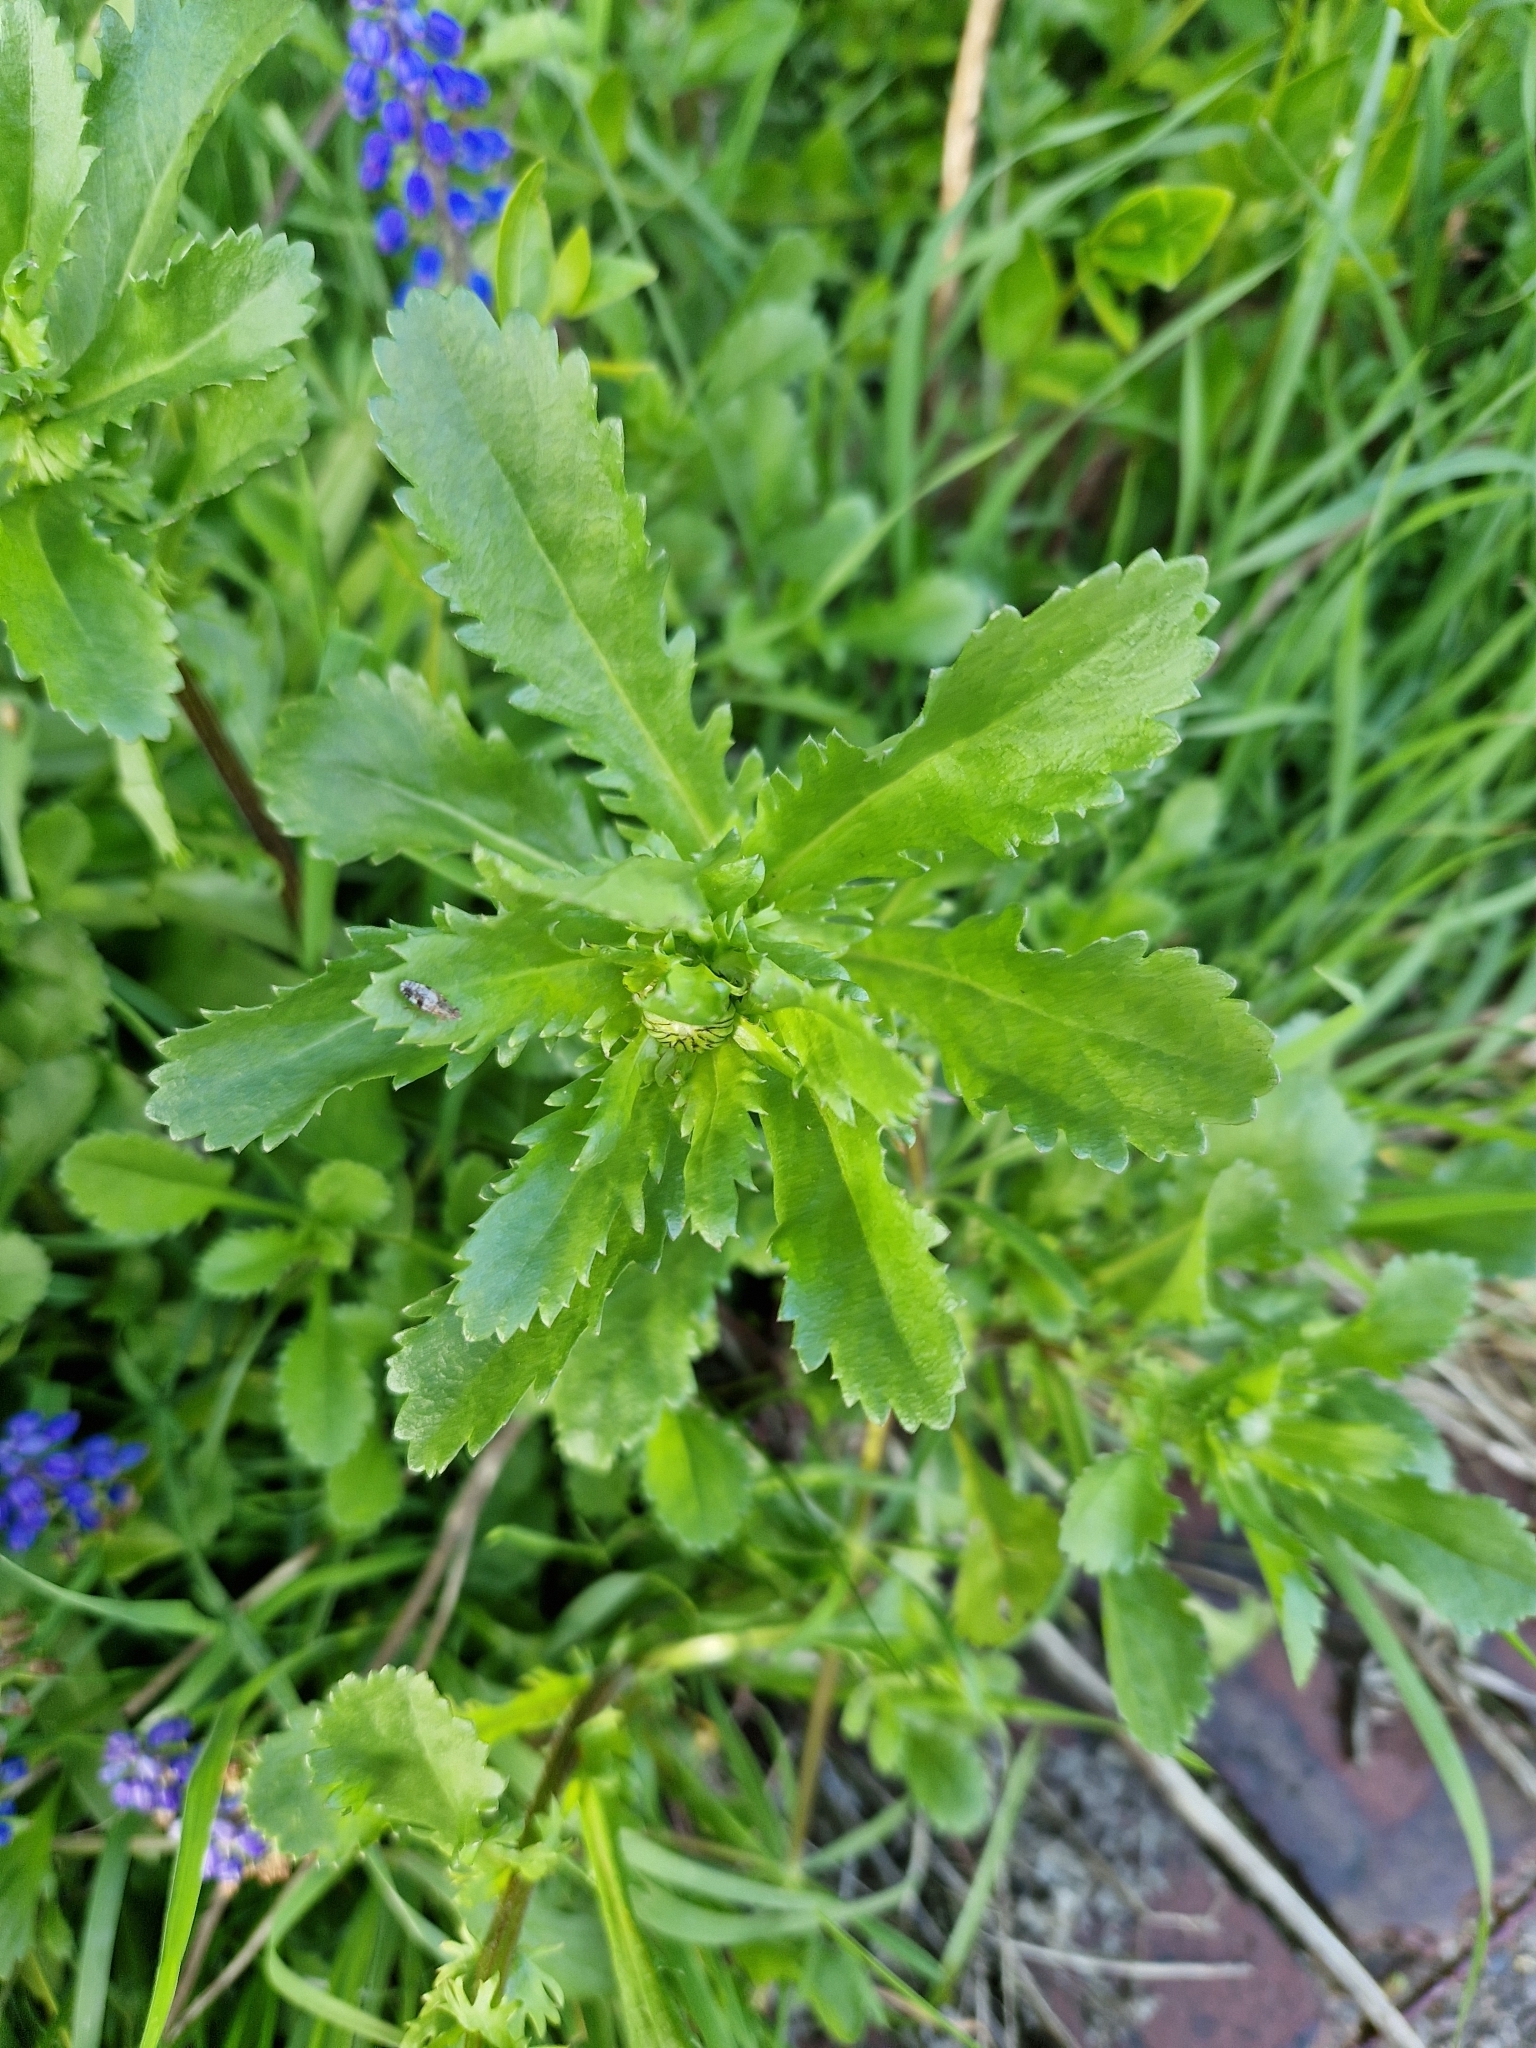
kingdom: Plantae
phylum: Tracheophyta
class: Magnoliopsida
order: Asterales
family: Asteraceae
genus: Leucanthemum
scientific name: Leucanthemum vulgare
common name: Oxeye daisy
